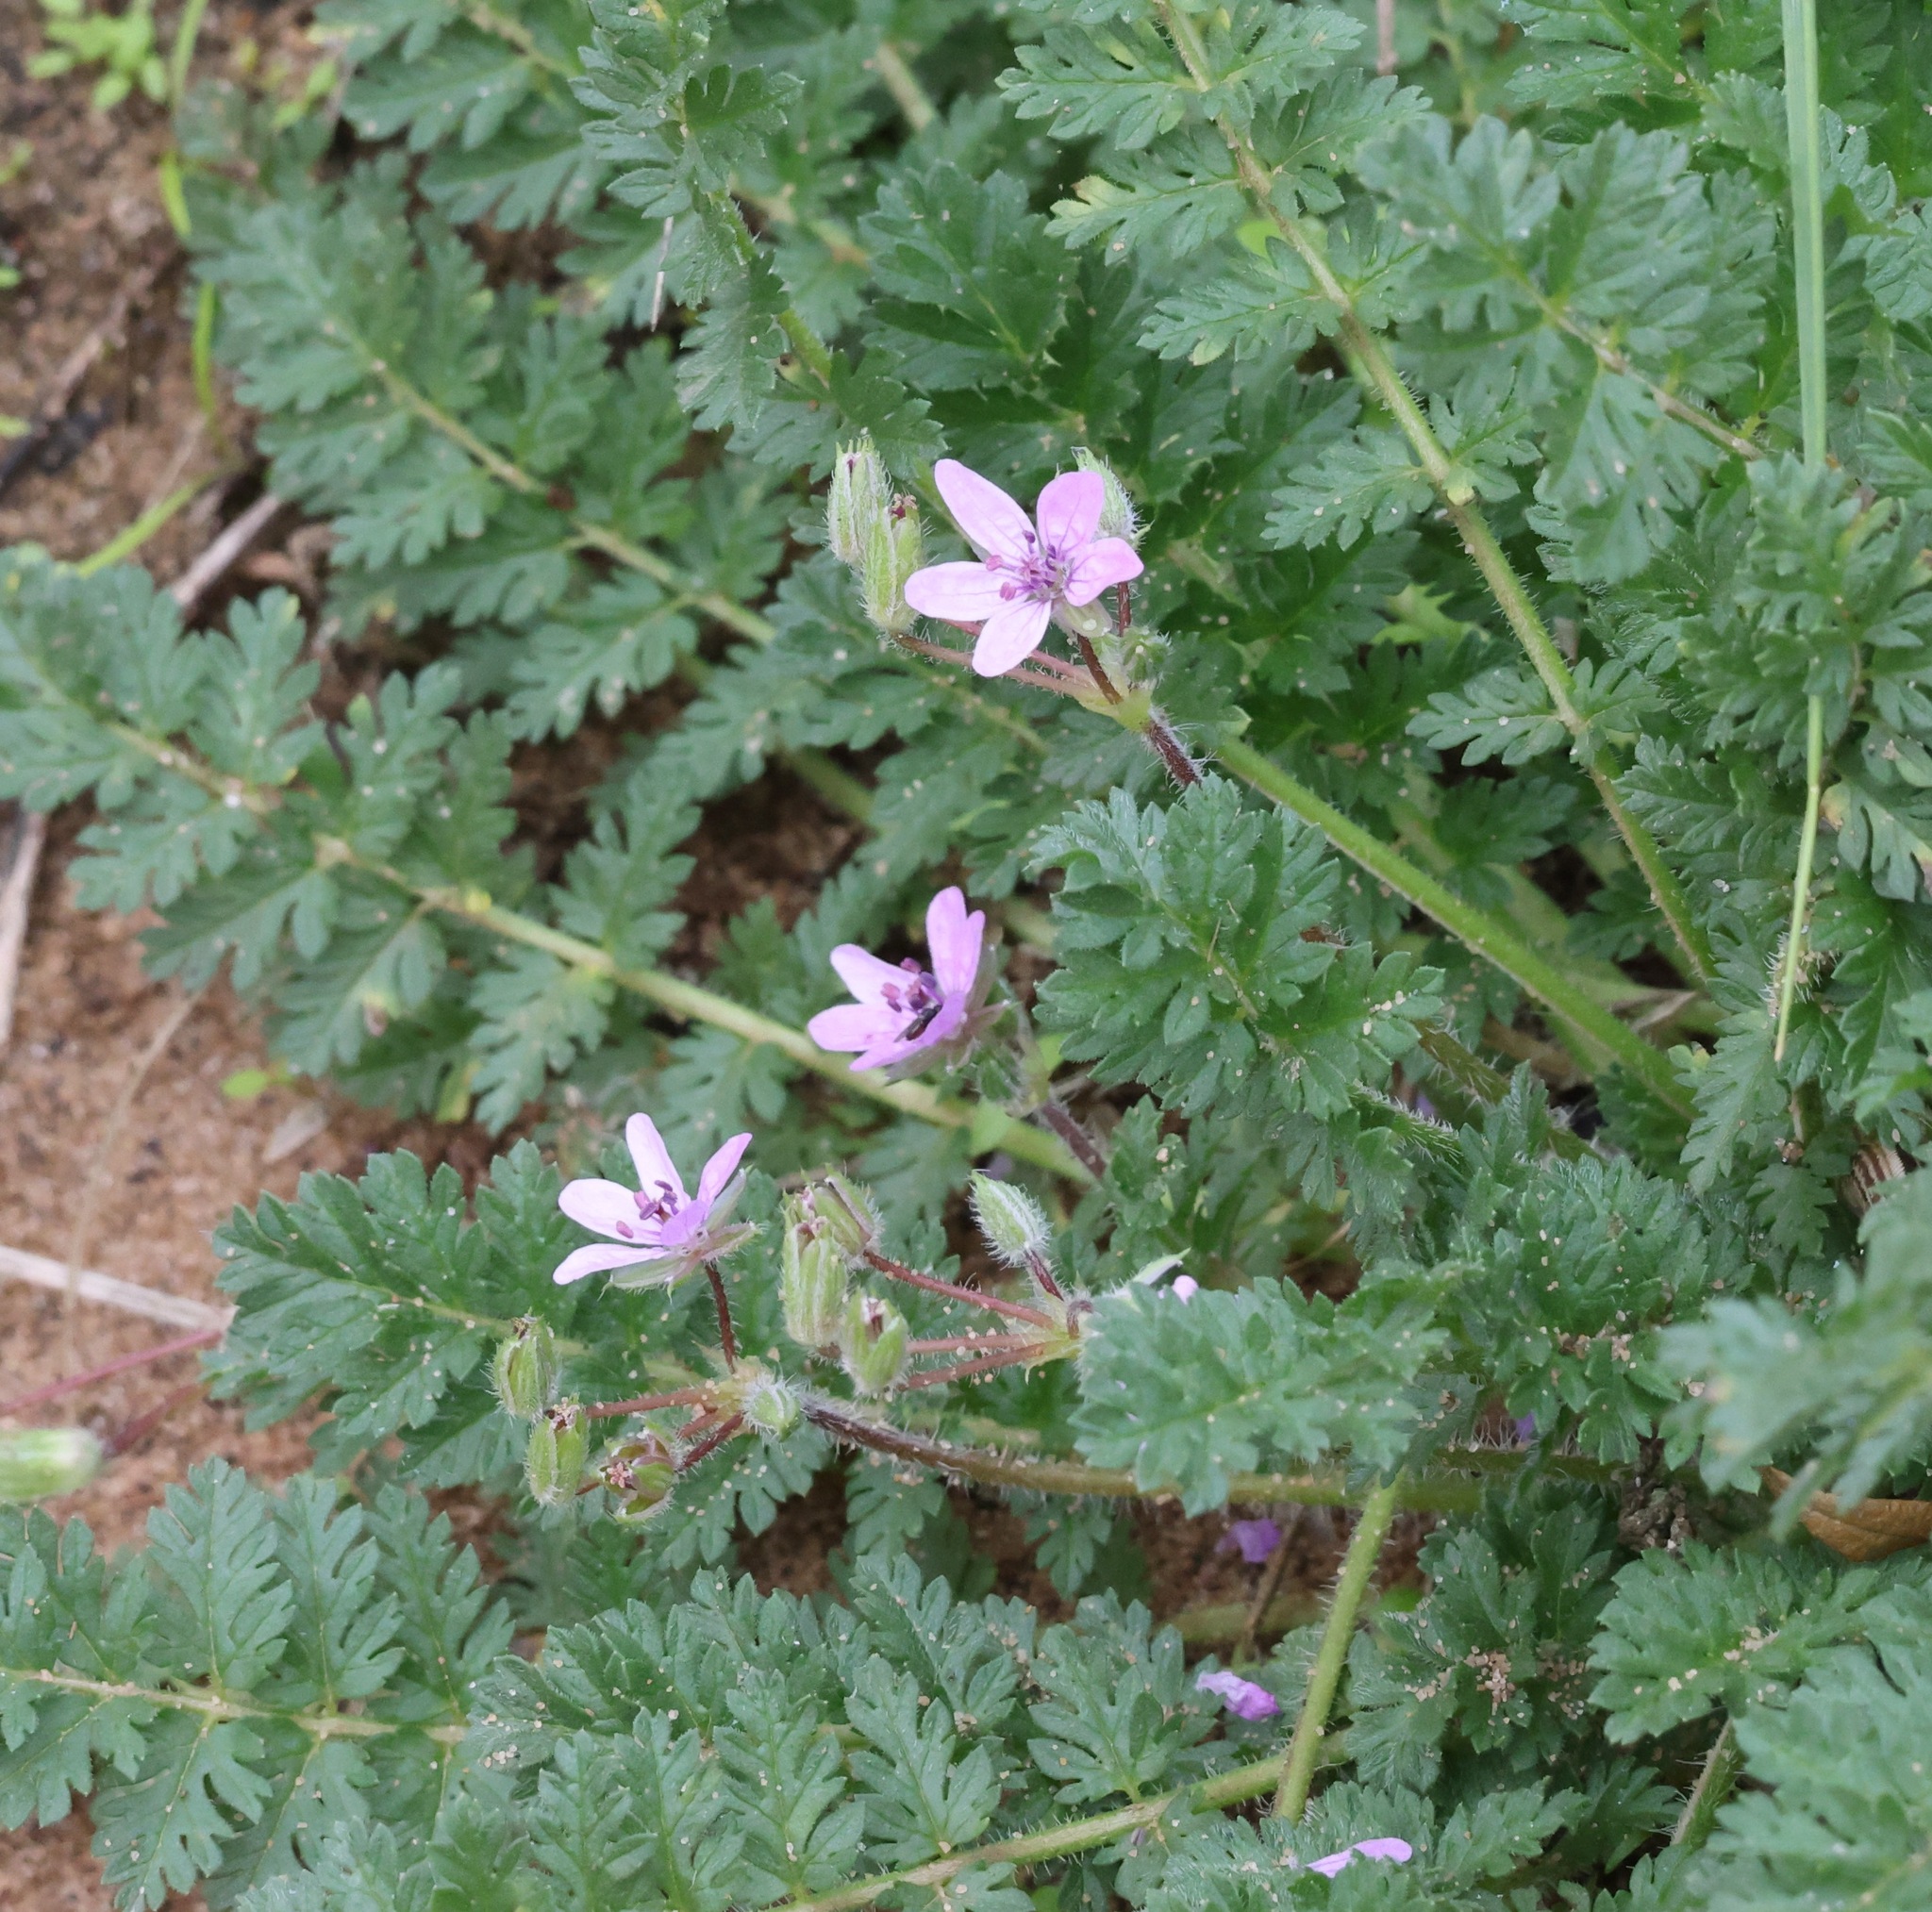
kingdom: Plantae
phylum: Tracheophyta
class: Magnoliopsida
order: Geraniales
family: Geraniaceae
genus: Erodium
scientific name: Erodium cicutarium
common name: Common stork's-bill
